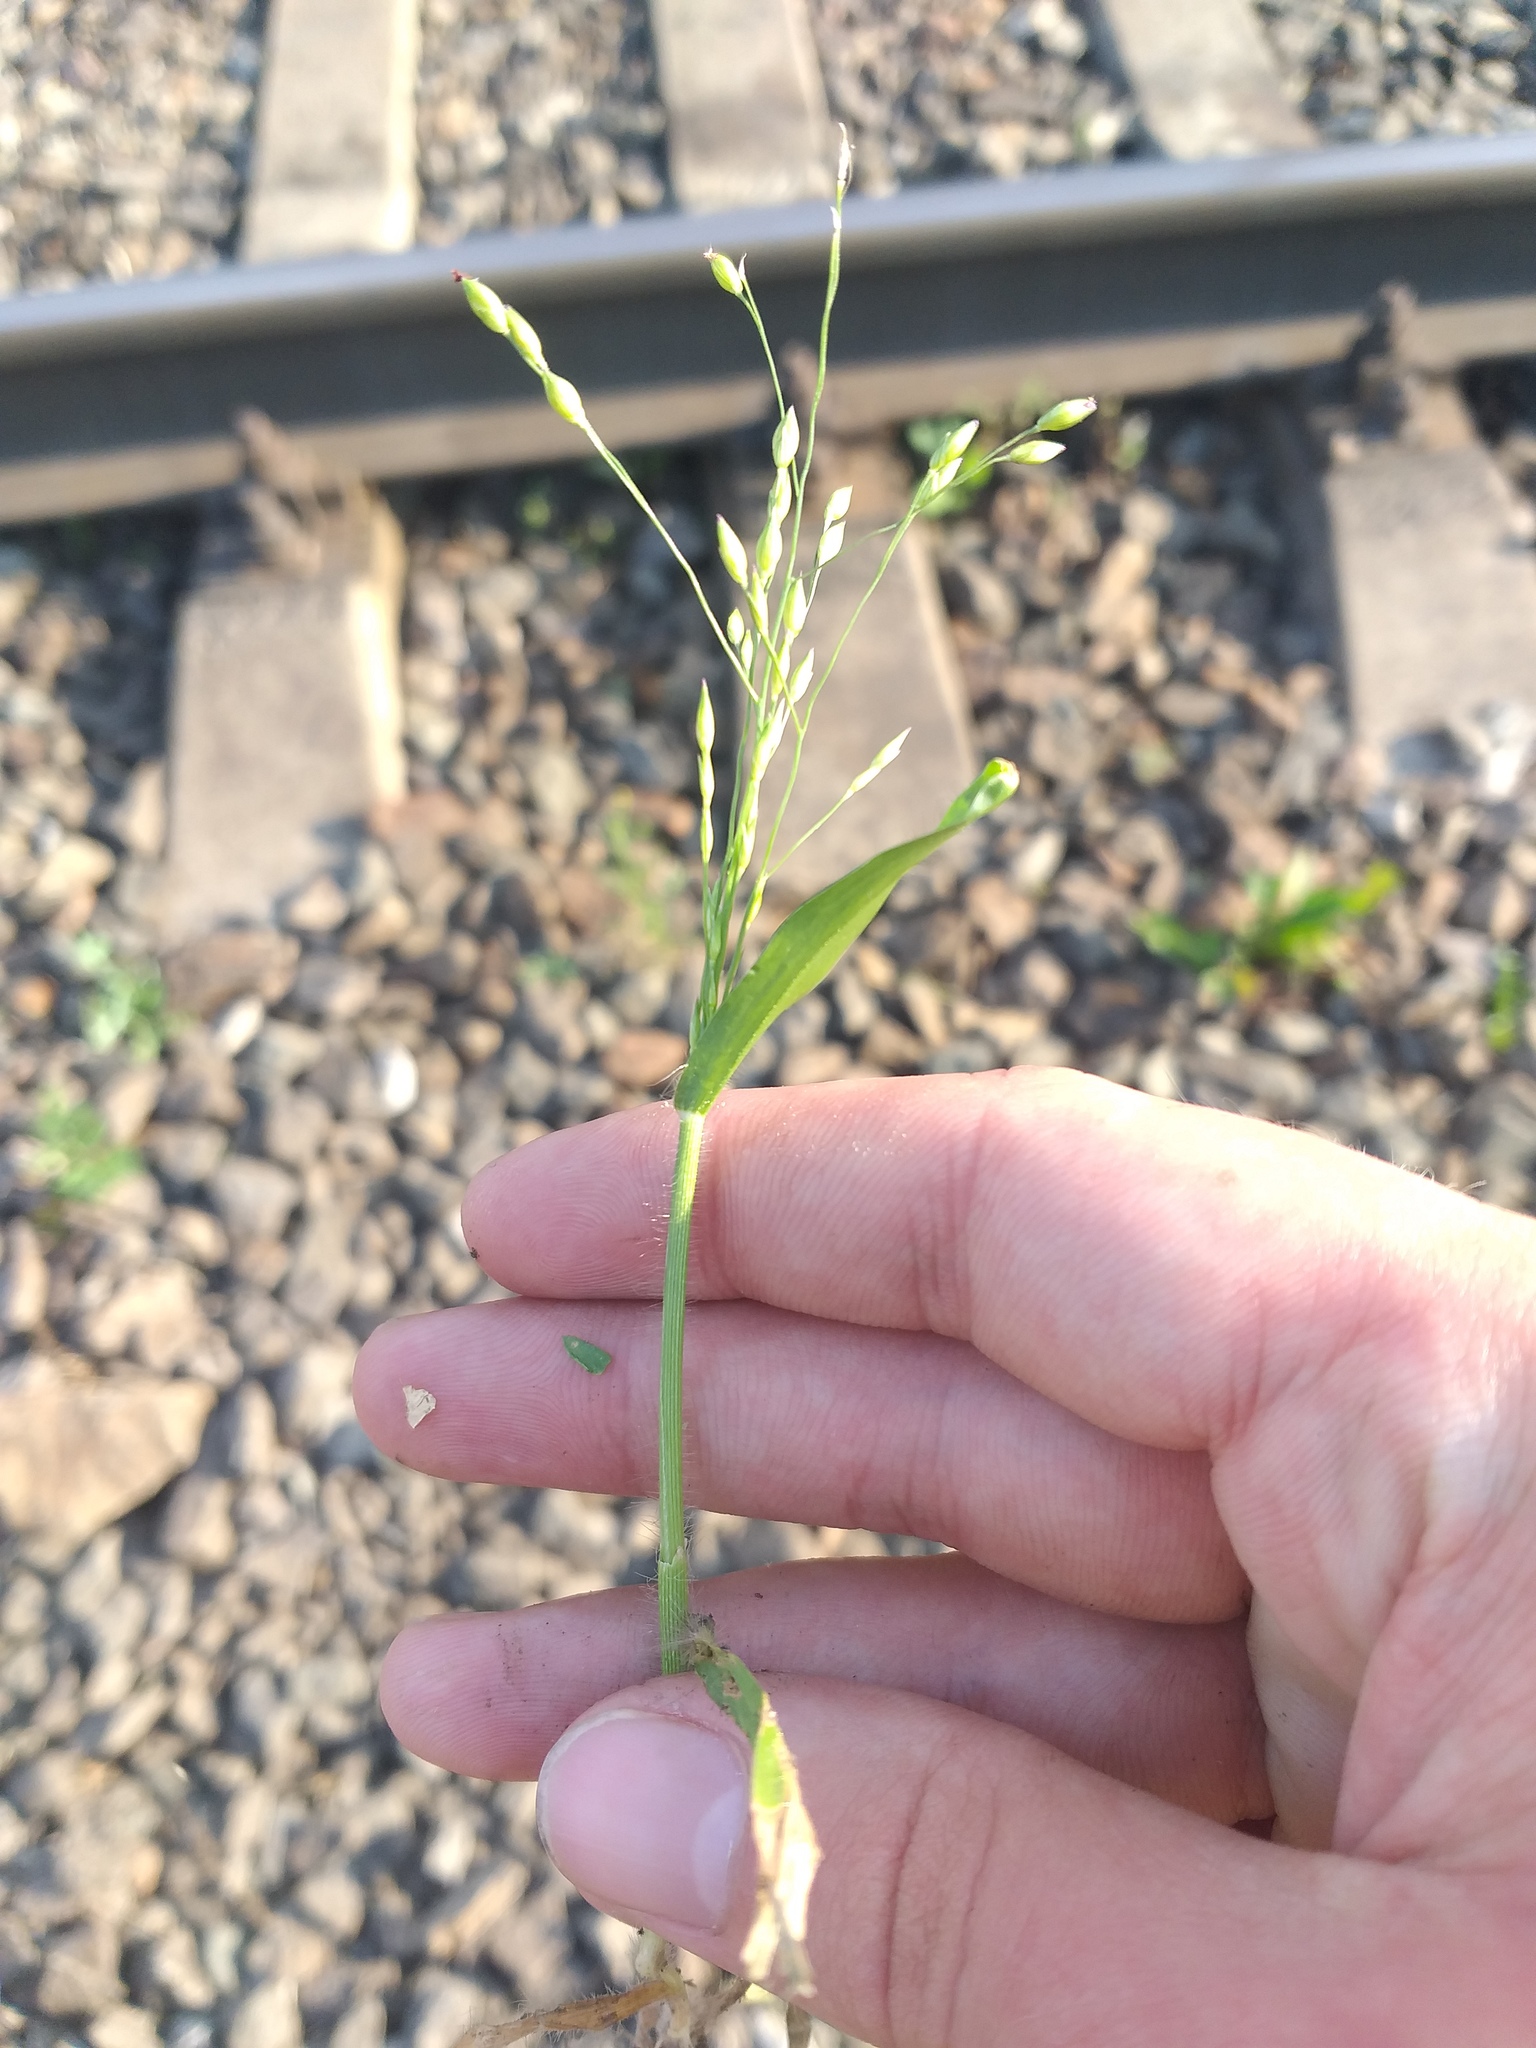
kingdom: Plantae
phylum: Tracheophyta
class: Liliopsida
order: Poales
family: Poaceae
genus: Panicum
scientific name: Panicum miliaceum
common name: Common millet
